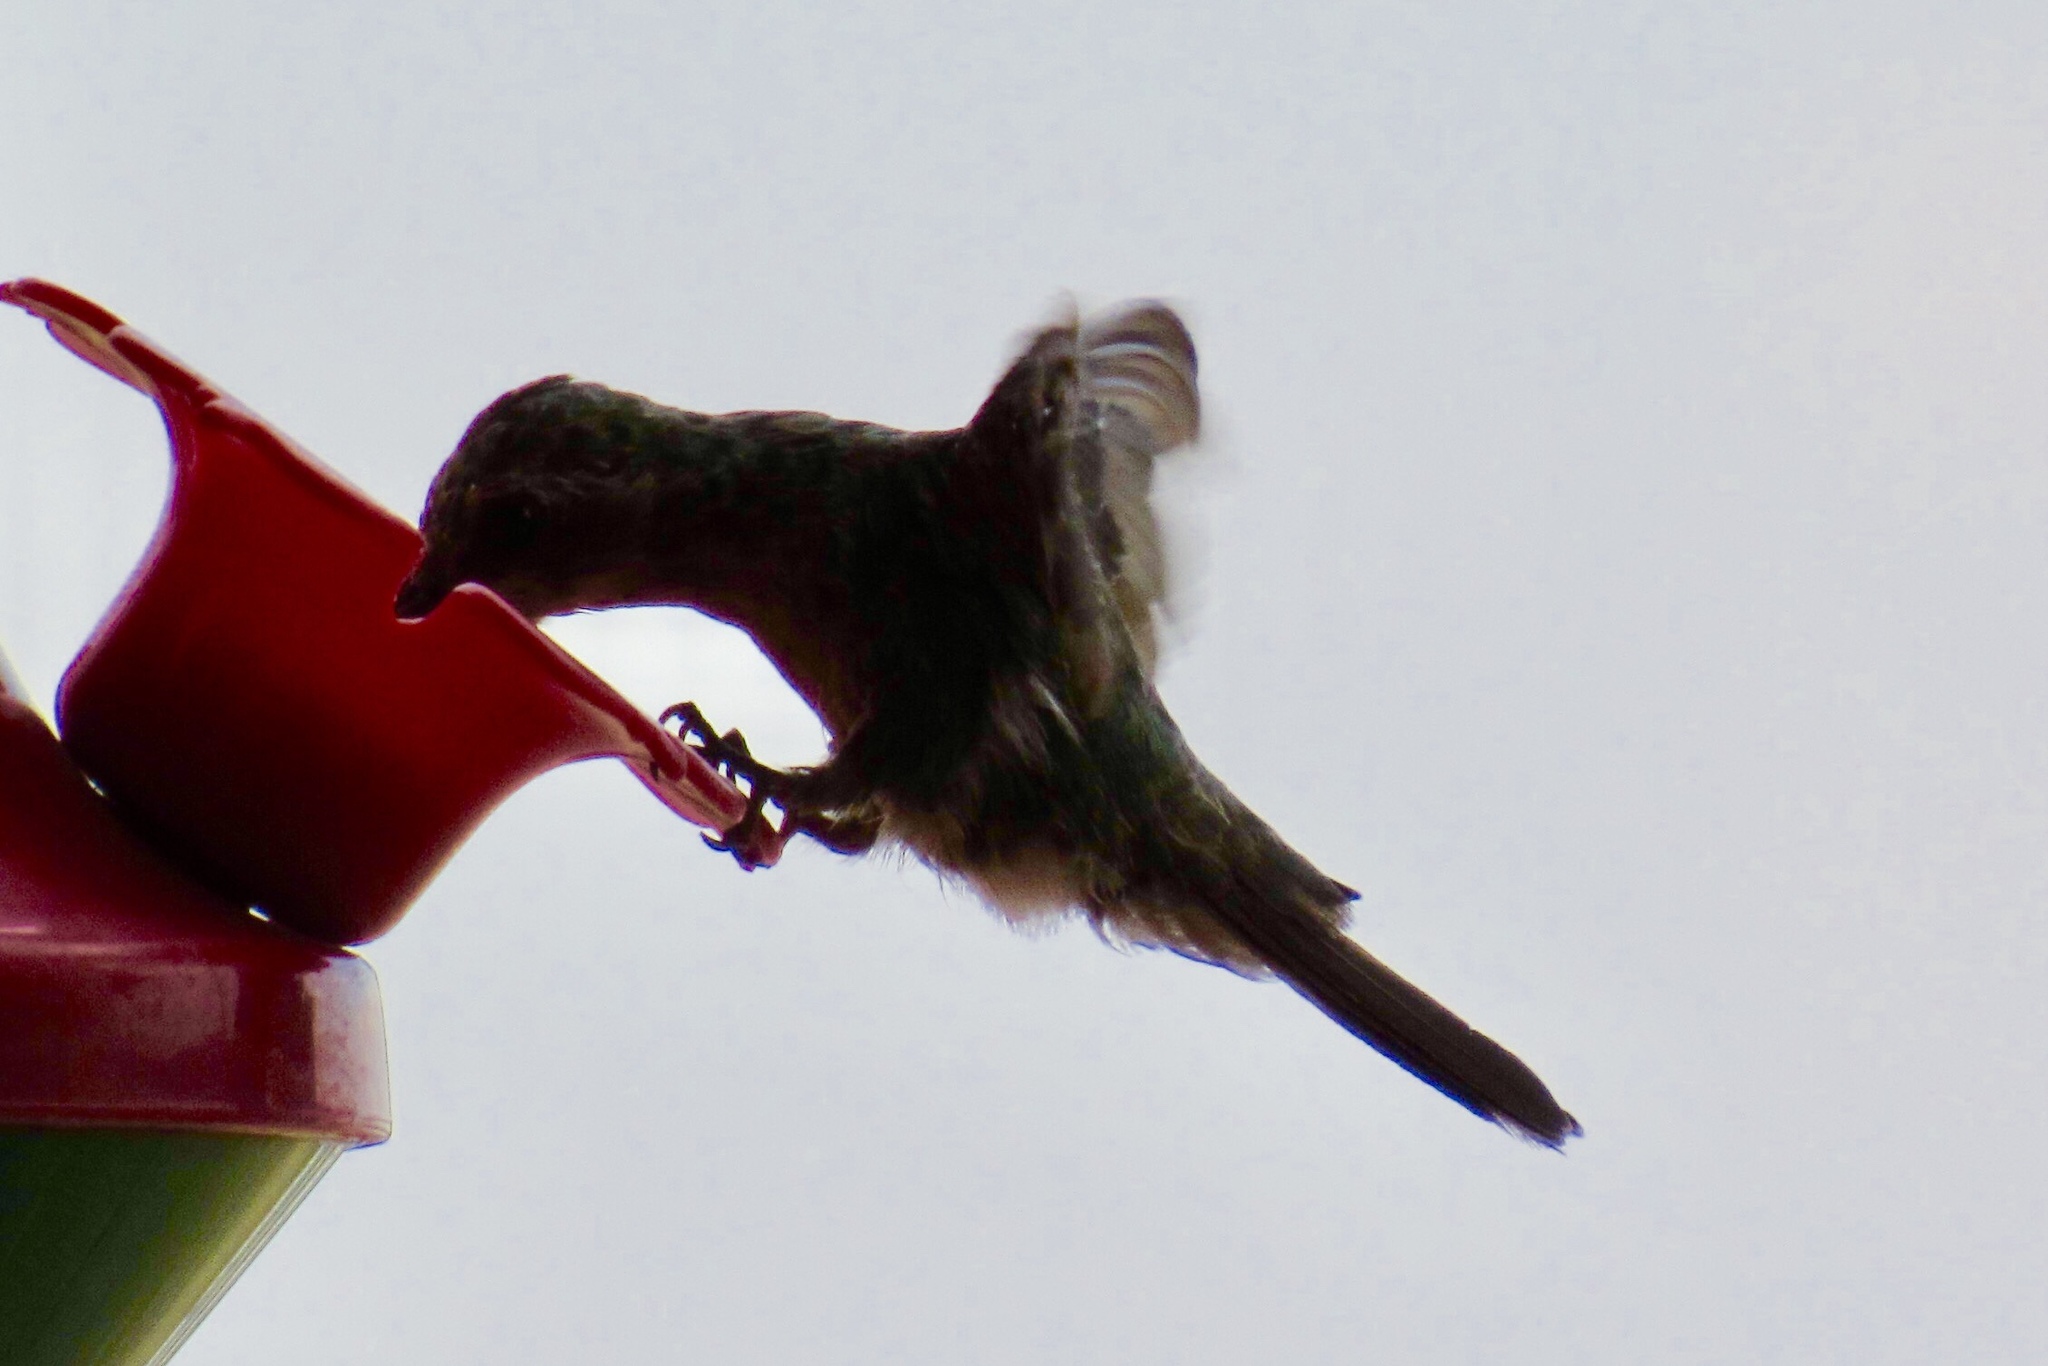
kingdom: Animalia
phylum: Chordata
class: Aves
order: Apodiformes
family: Trochilidae
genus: Cynanthus
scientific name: Cynanthus latirostris
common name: Broad-billed hummingbird
